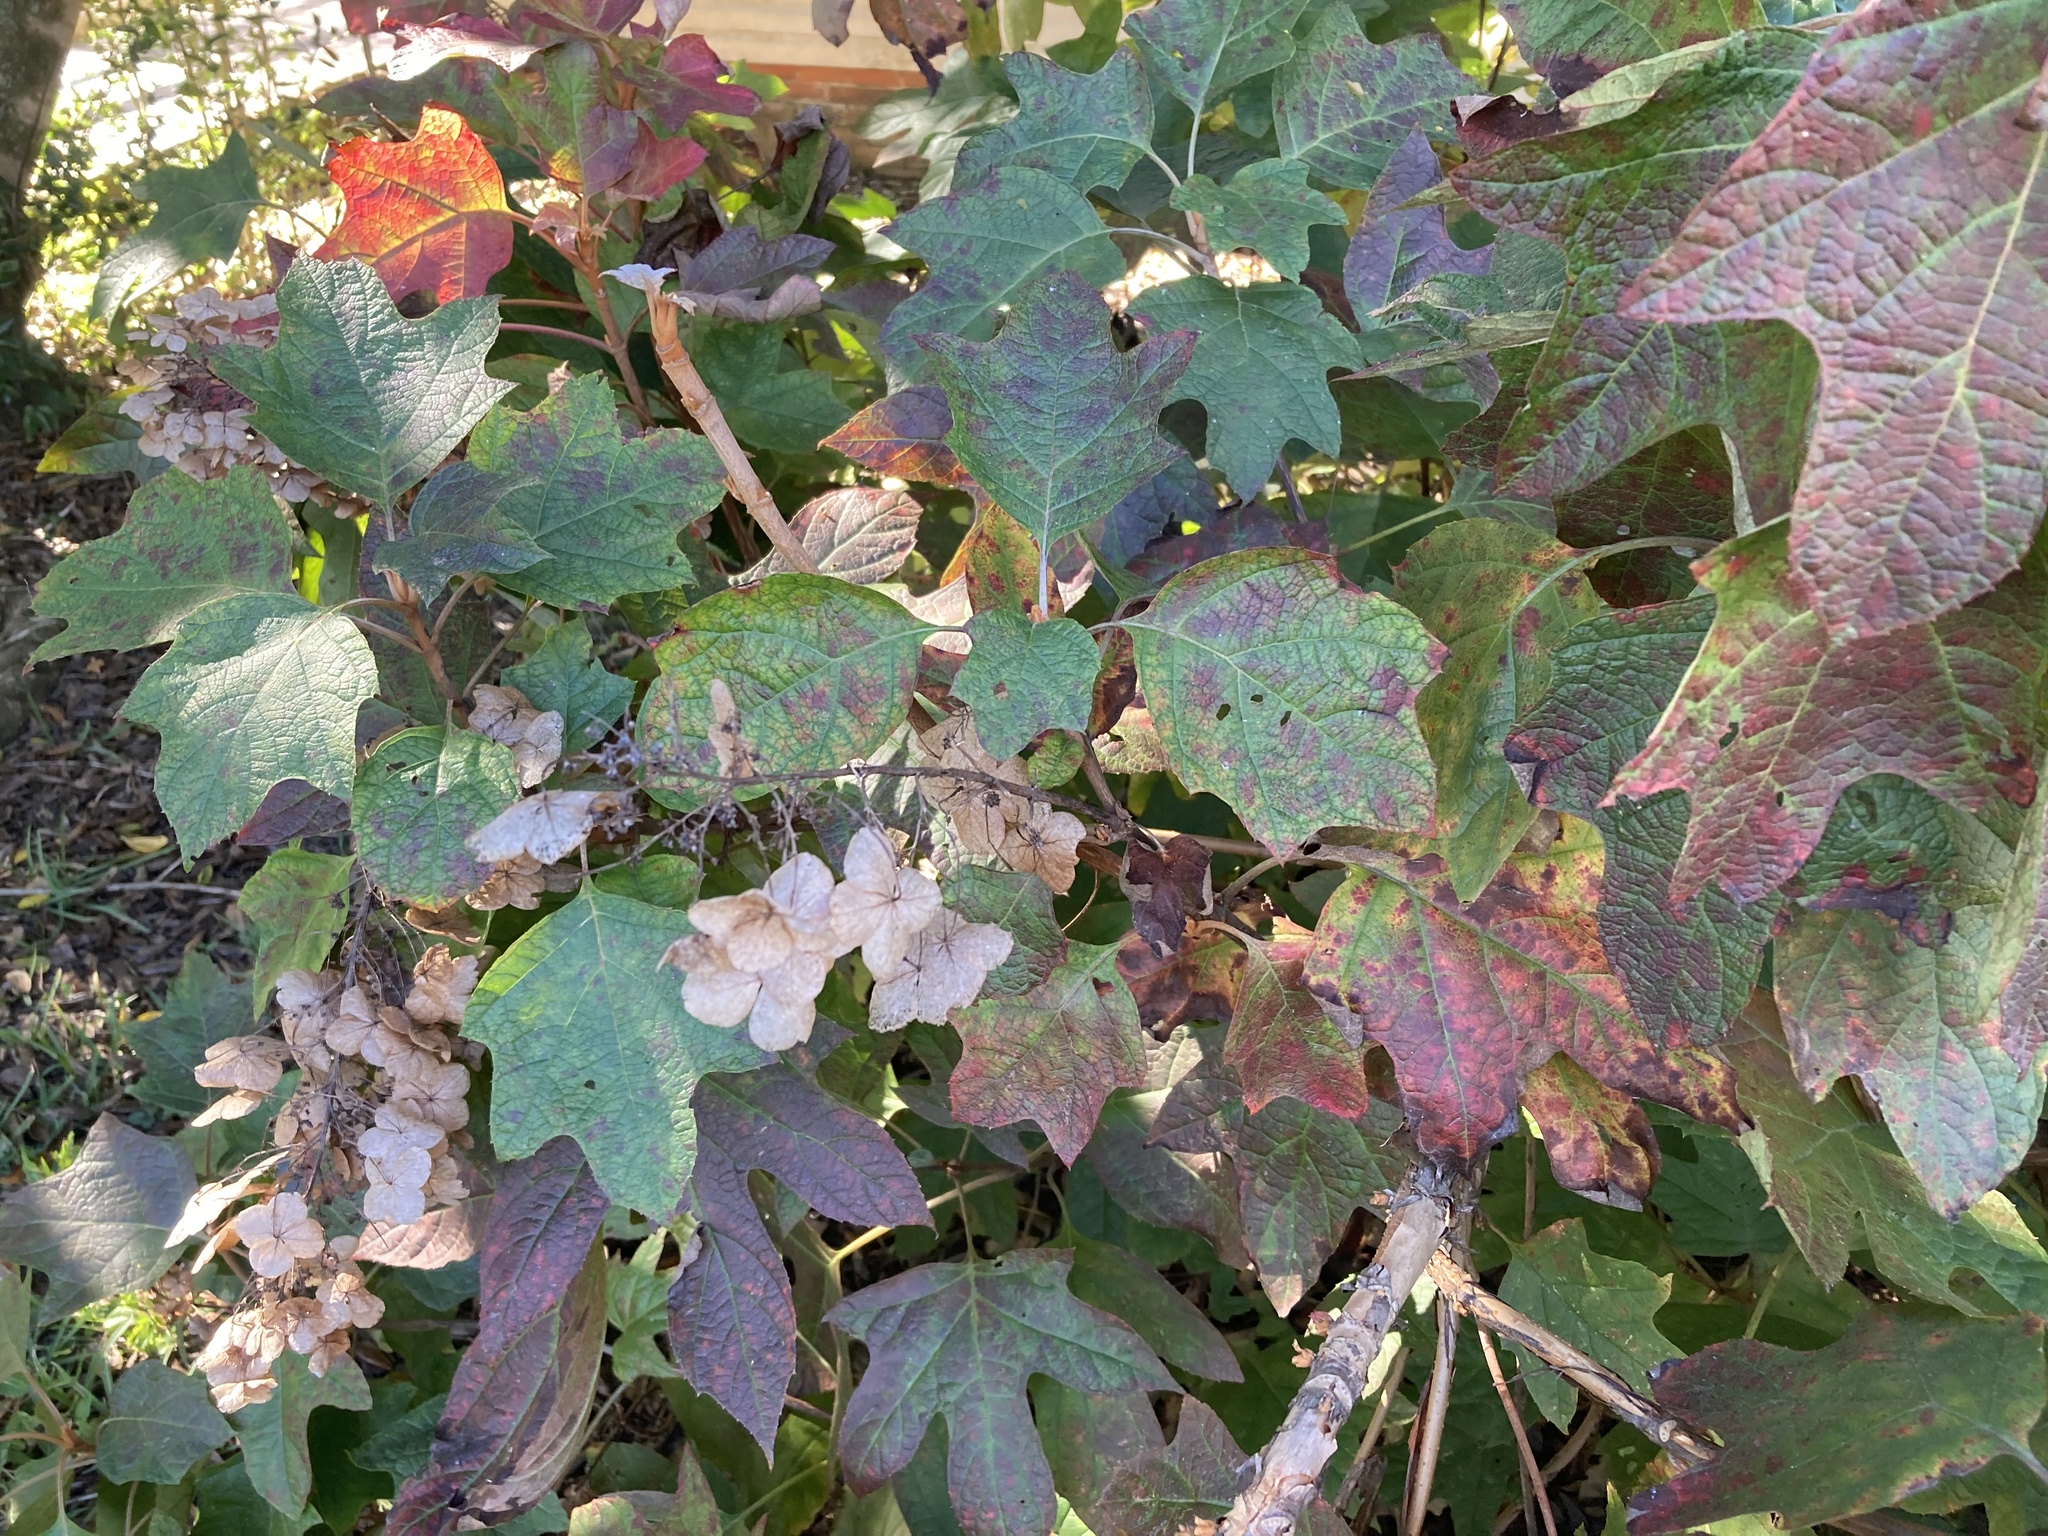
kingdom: Plantae
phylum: Tracheophyta
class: Magnoliopsida
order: Cornales
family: Hydrangeaceae
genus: Hydrangea
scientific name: Hydrangea quercifolia
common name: Oak-leaf hydrangea
